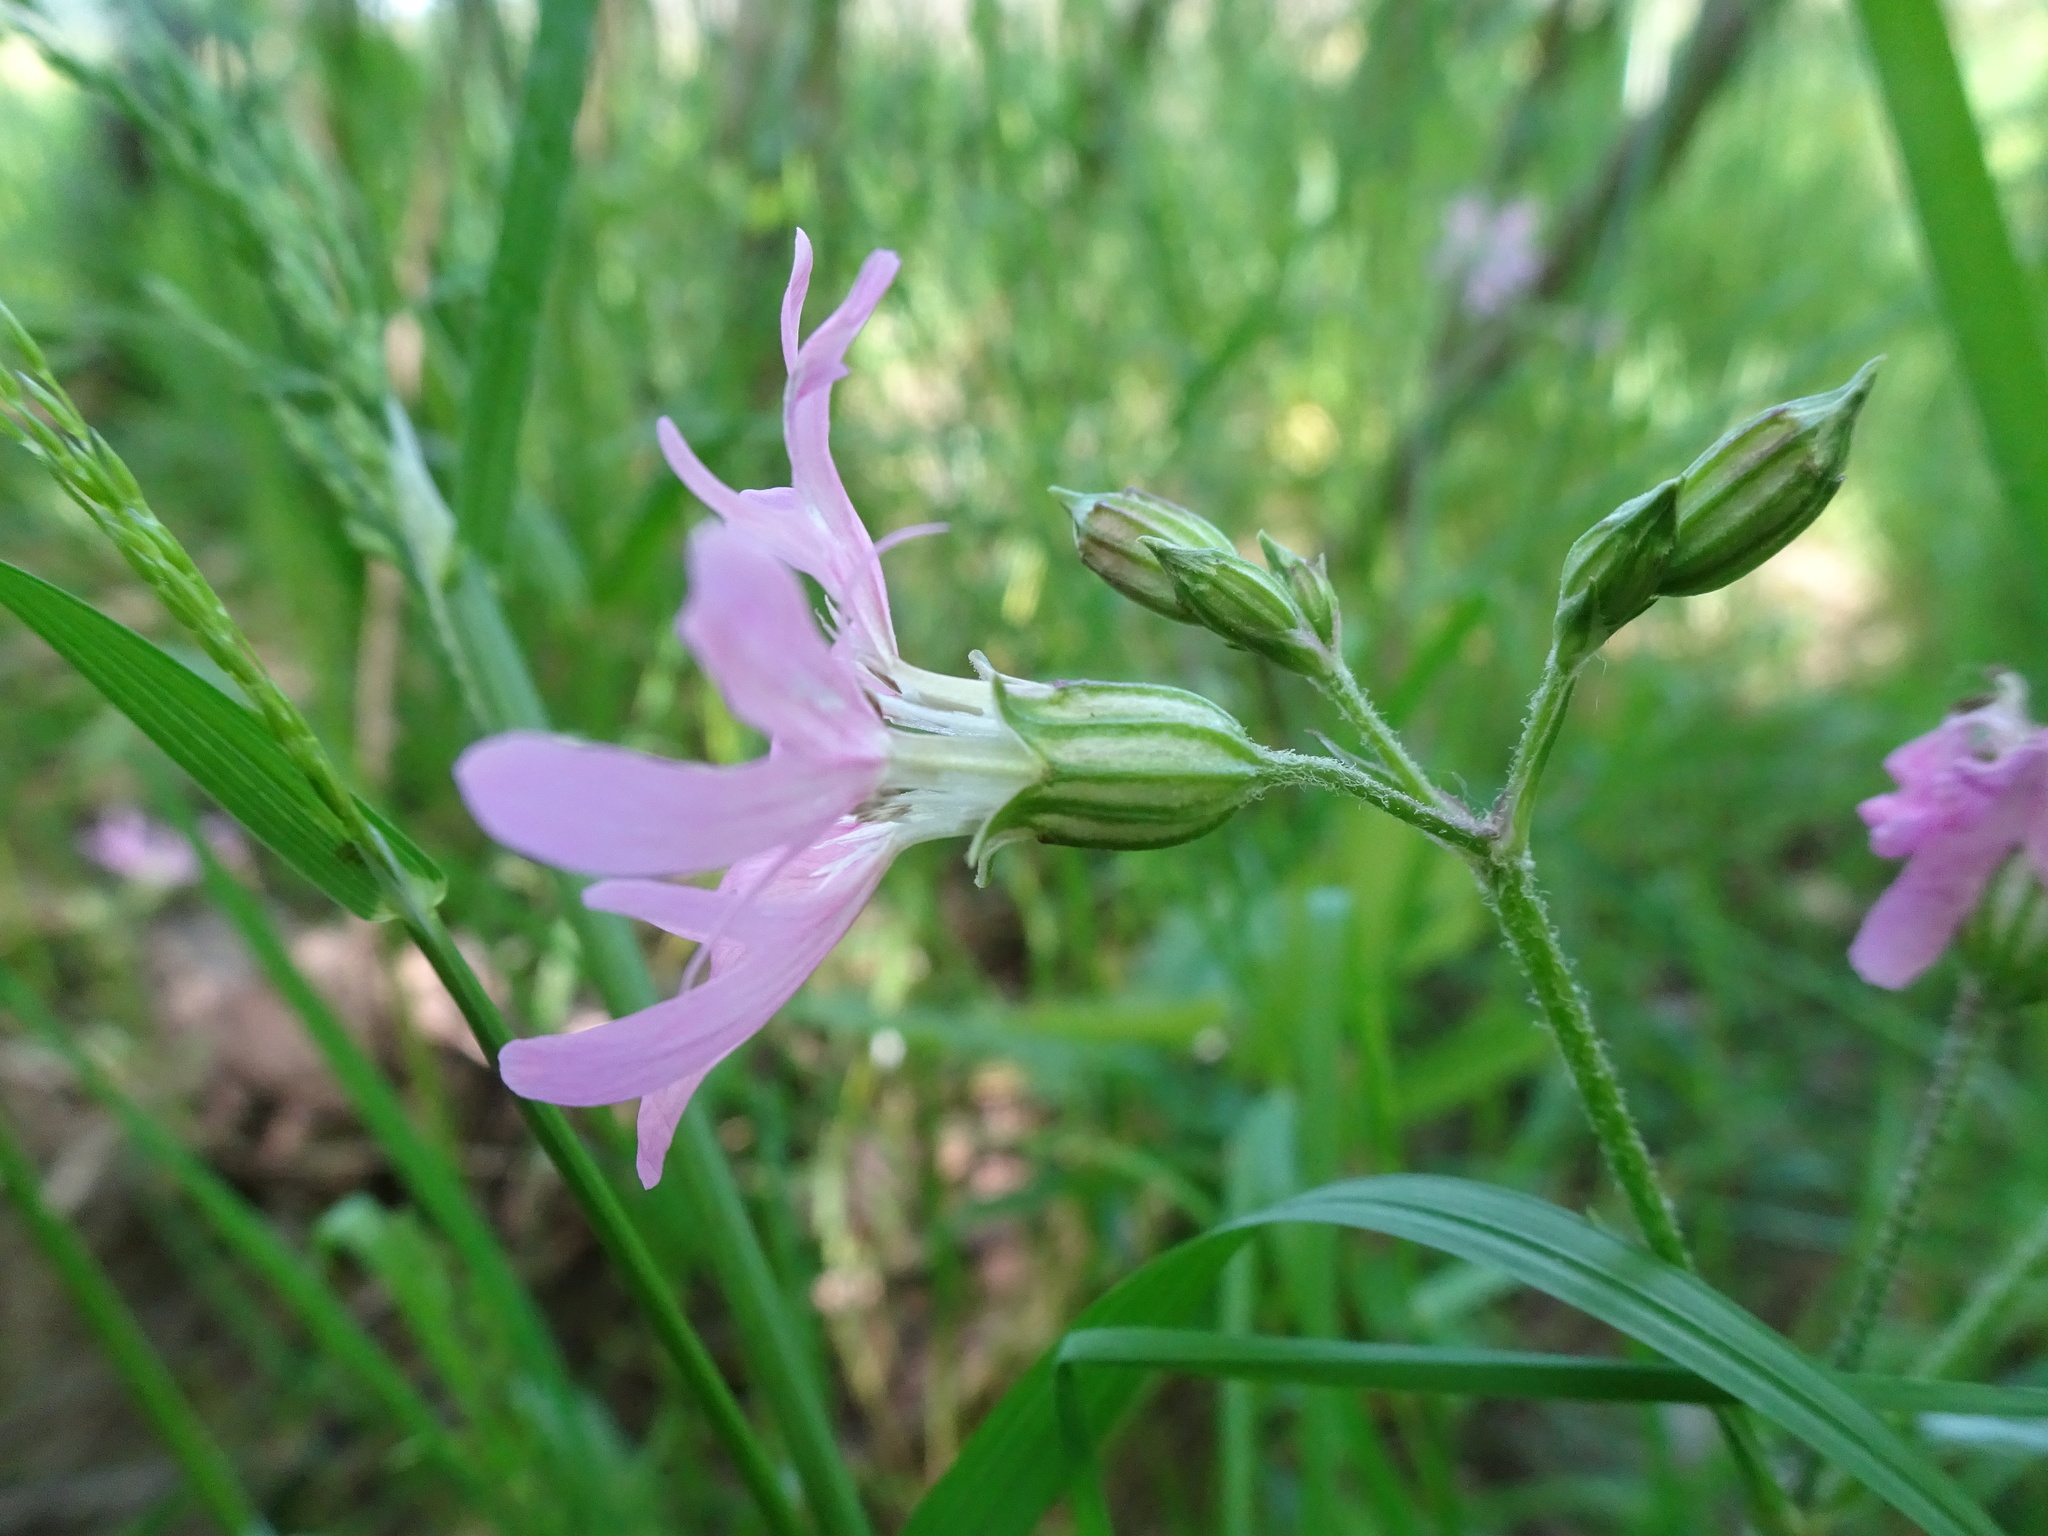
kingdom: Plantae
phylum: Tracheophyta
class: Magnoliopsida
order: Caryophyllales
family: Caryophyllaceae
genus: Silene
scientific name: Silene flos-cuculi
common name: Ragged-robin
